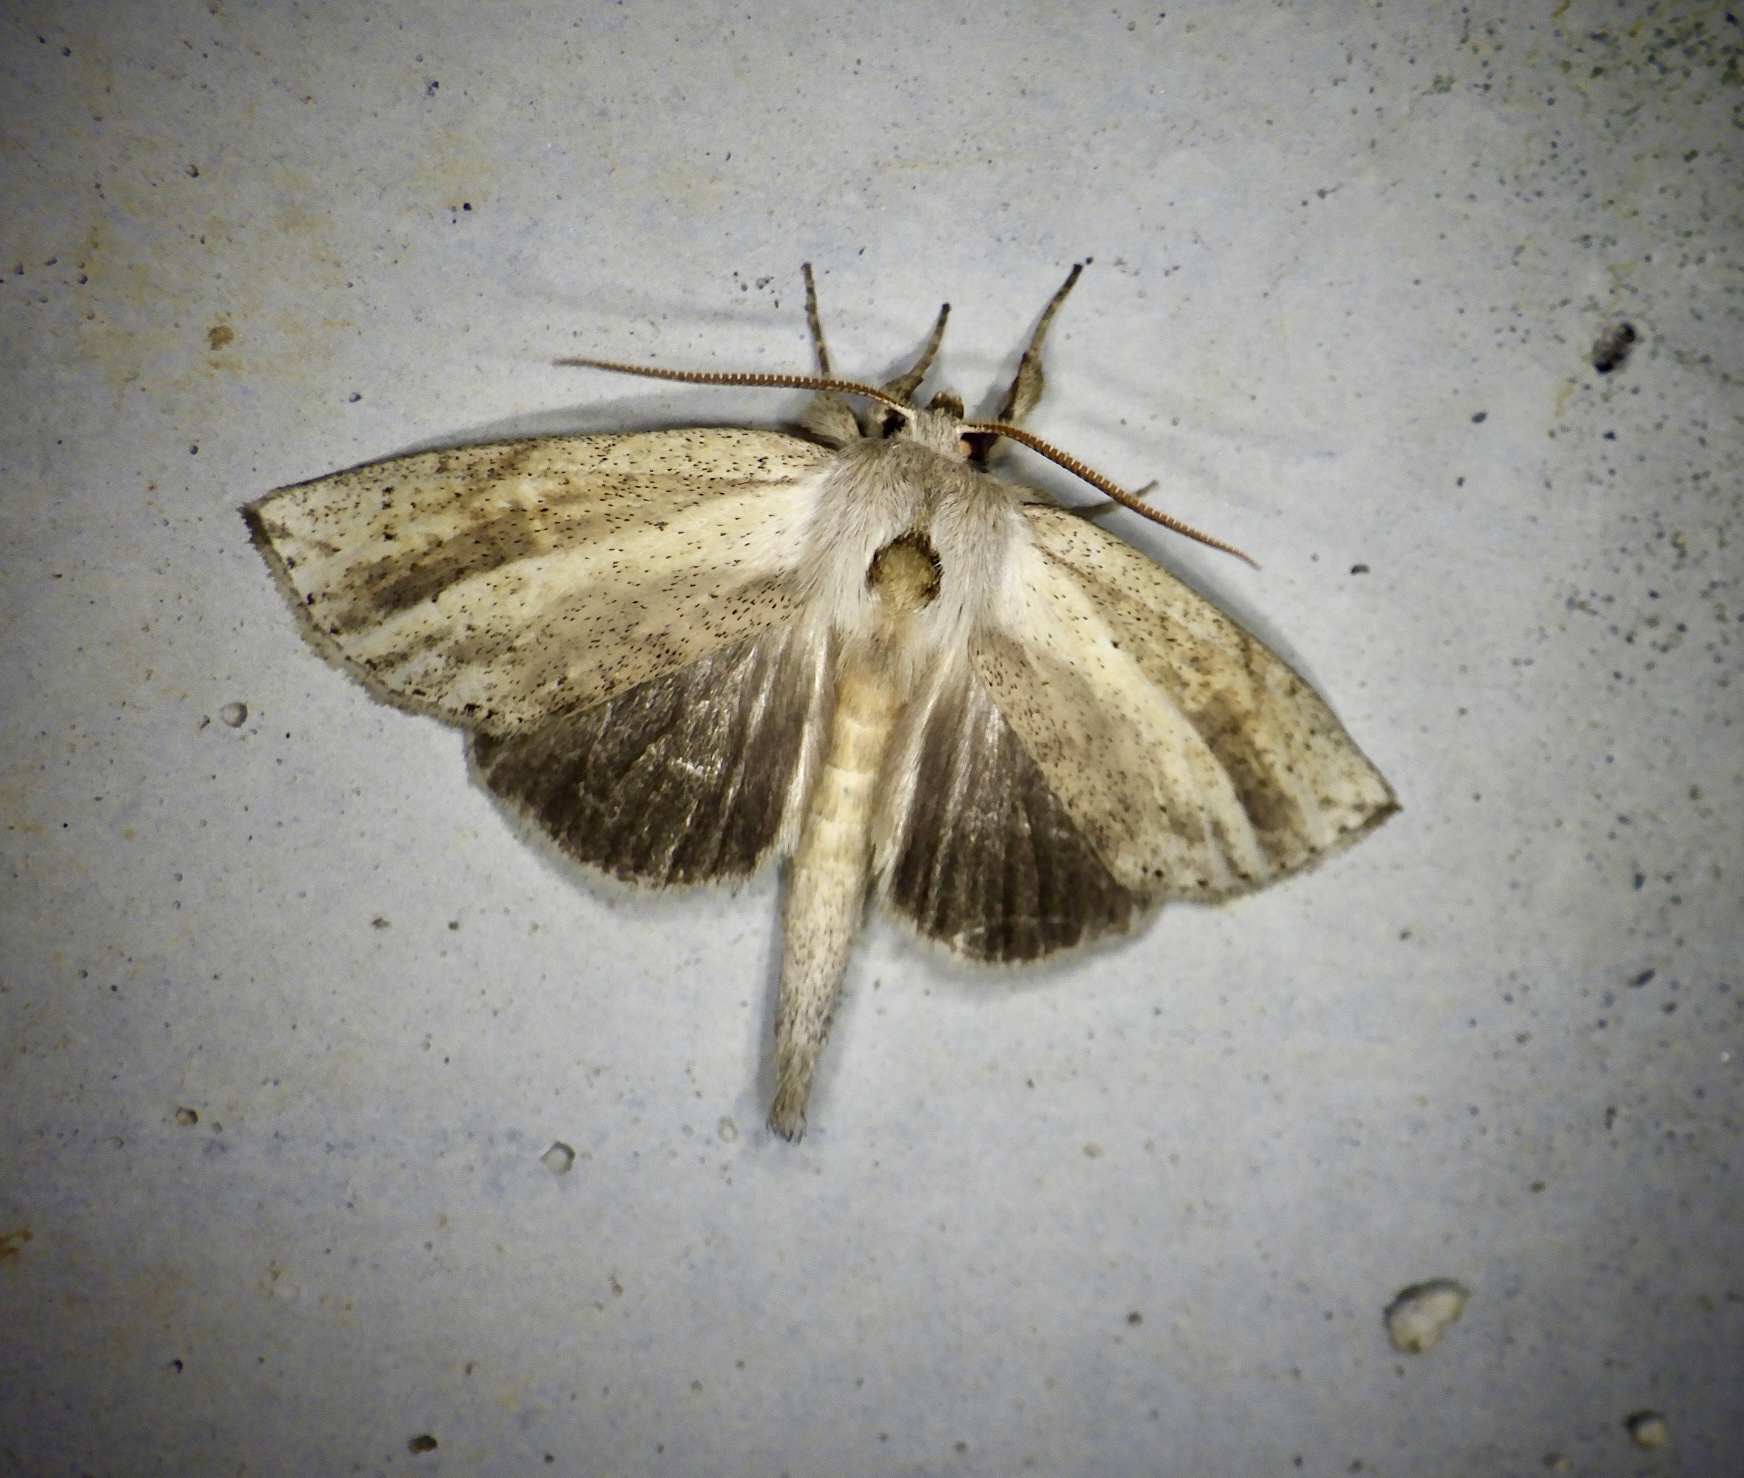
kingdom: Animalia
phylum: Arthropoda
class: Insecta
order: Lepidoptera
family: Notodontidae
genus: Mimopydna
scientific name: Mimopydna pallida
